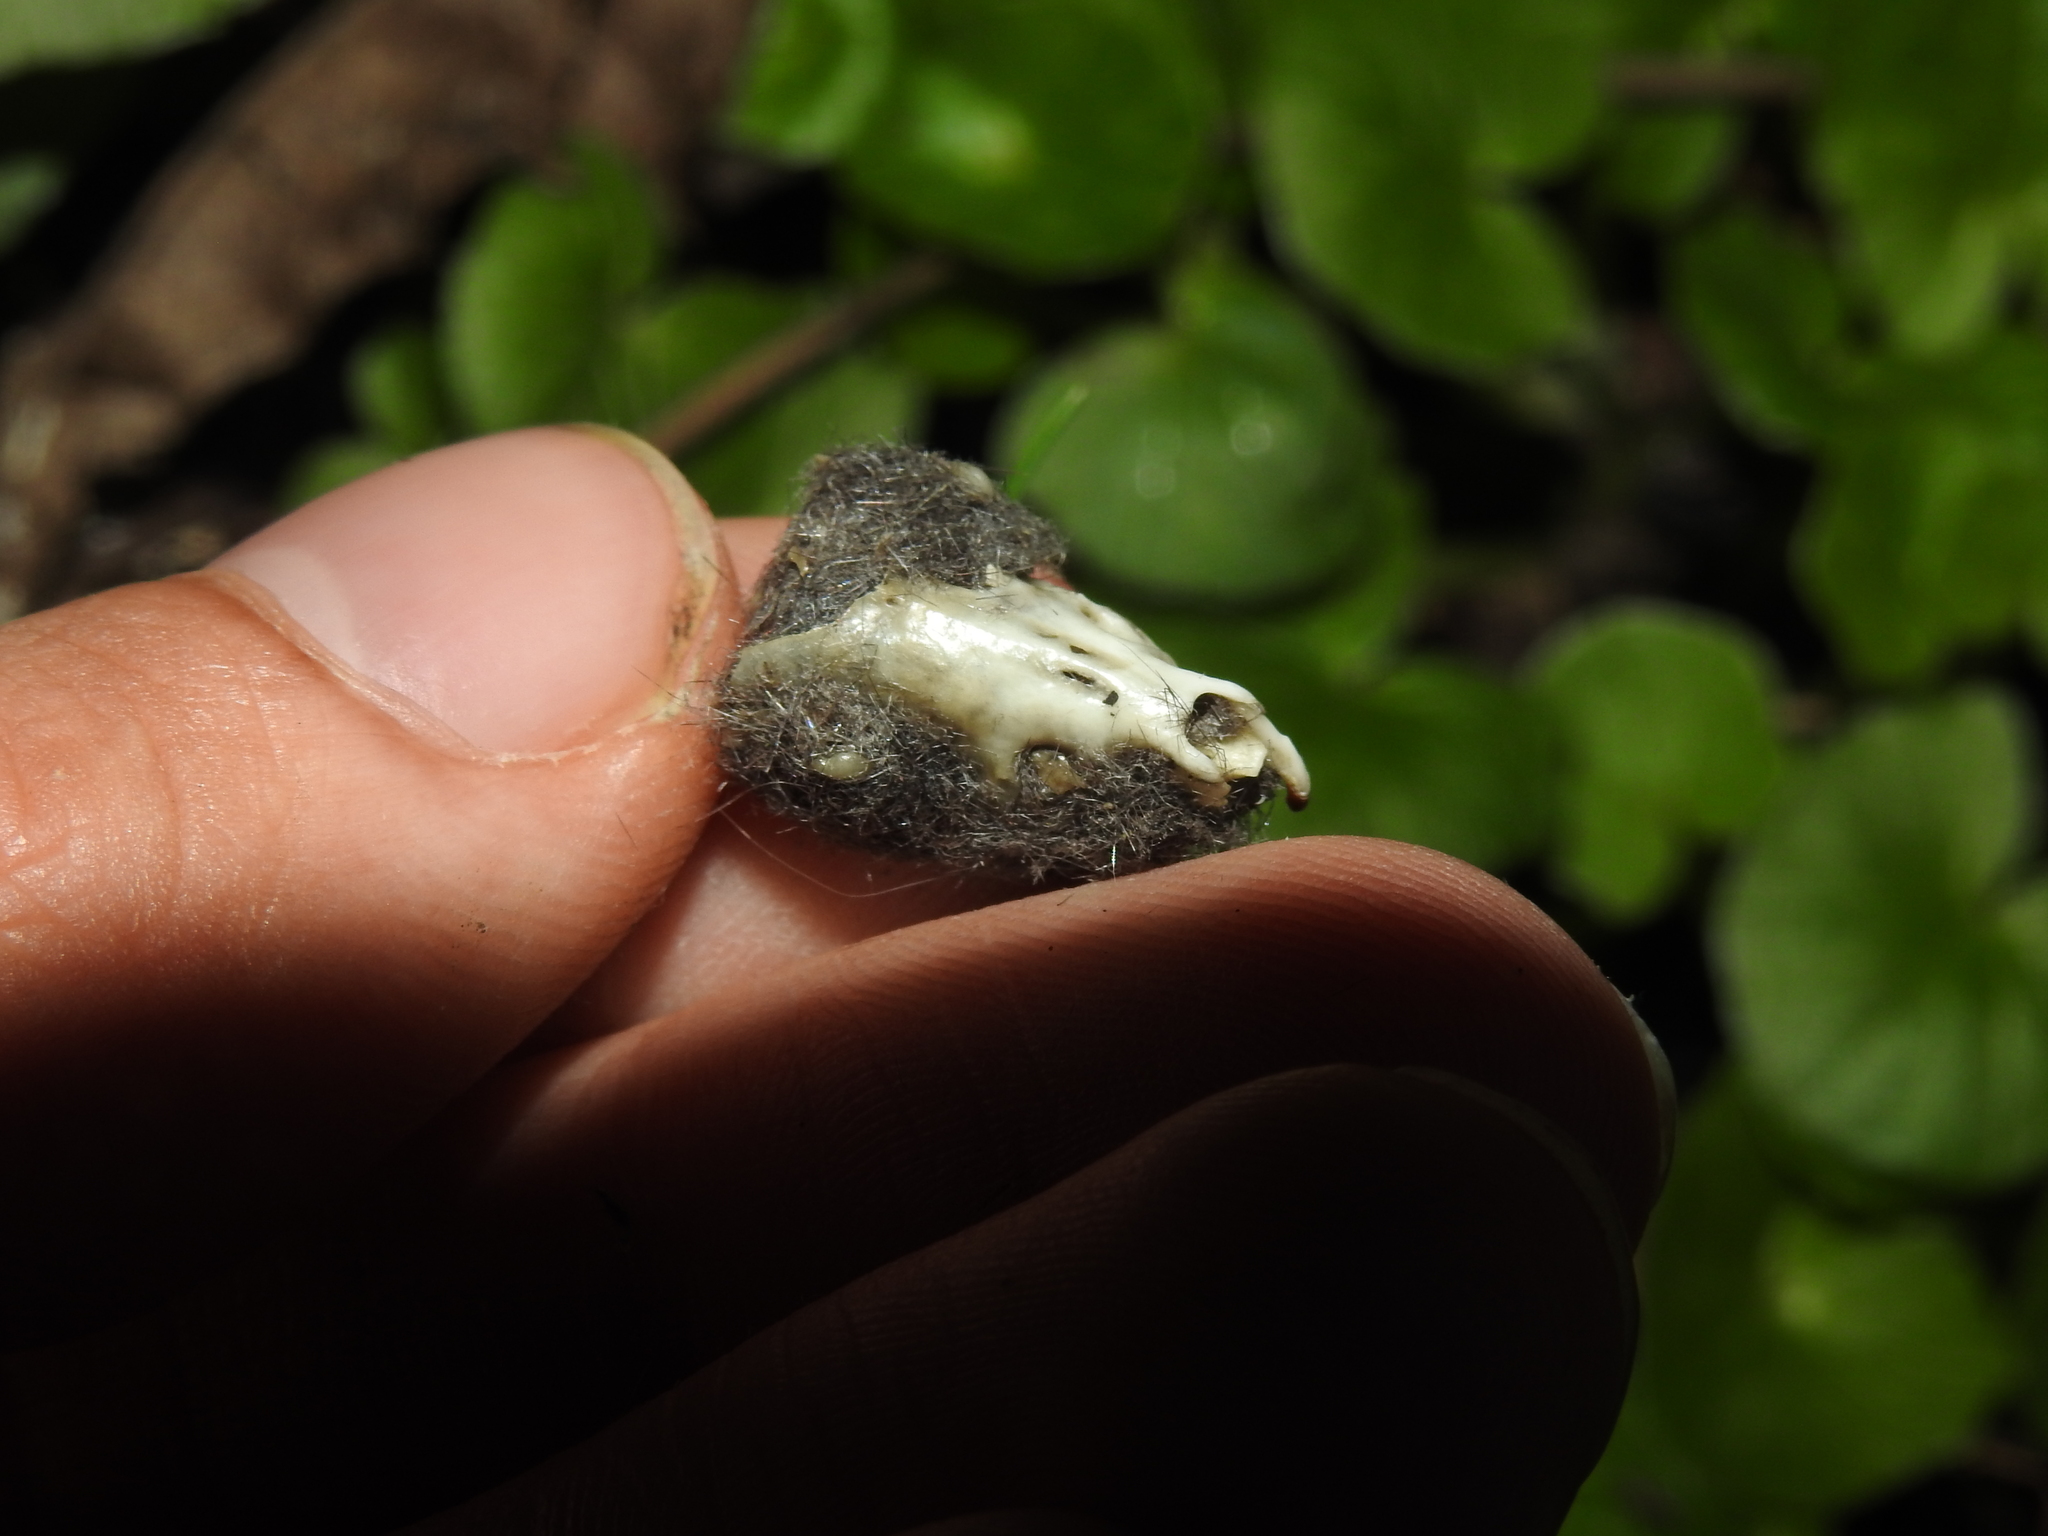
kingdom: Animalia
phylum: Chordata
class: Mammalia
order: Soricomorpha
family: Soricidae
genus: Blarina
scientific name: Blarina brevicauda
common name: Northern short-tailed shrew
